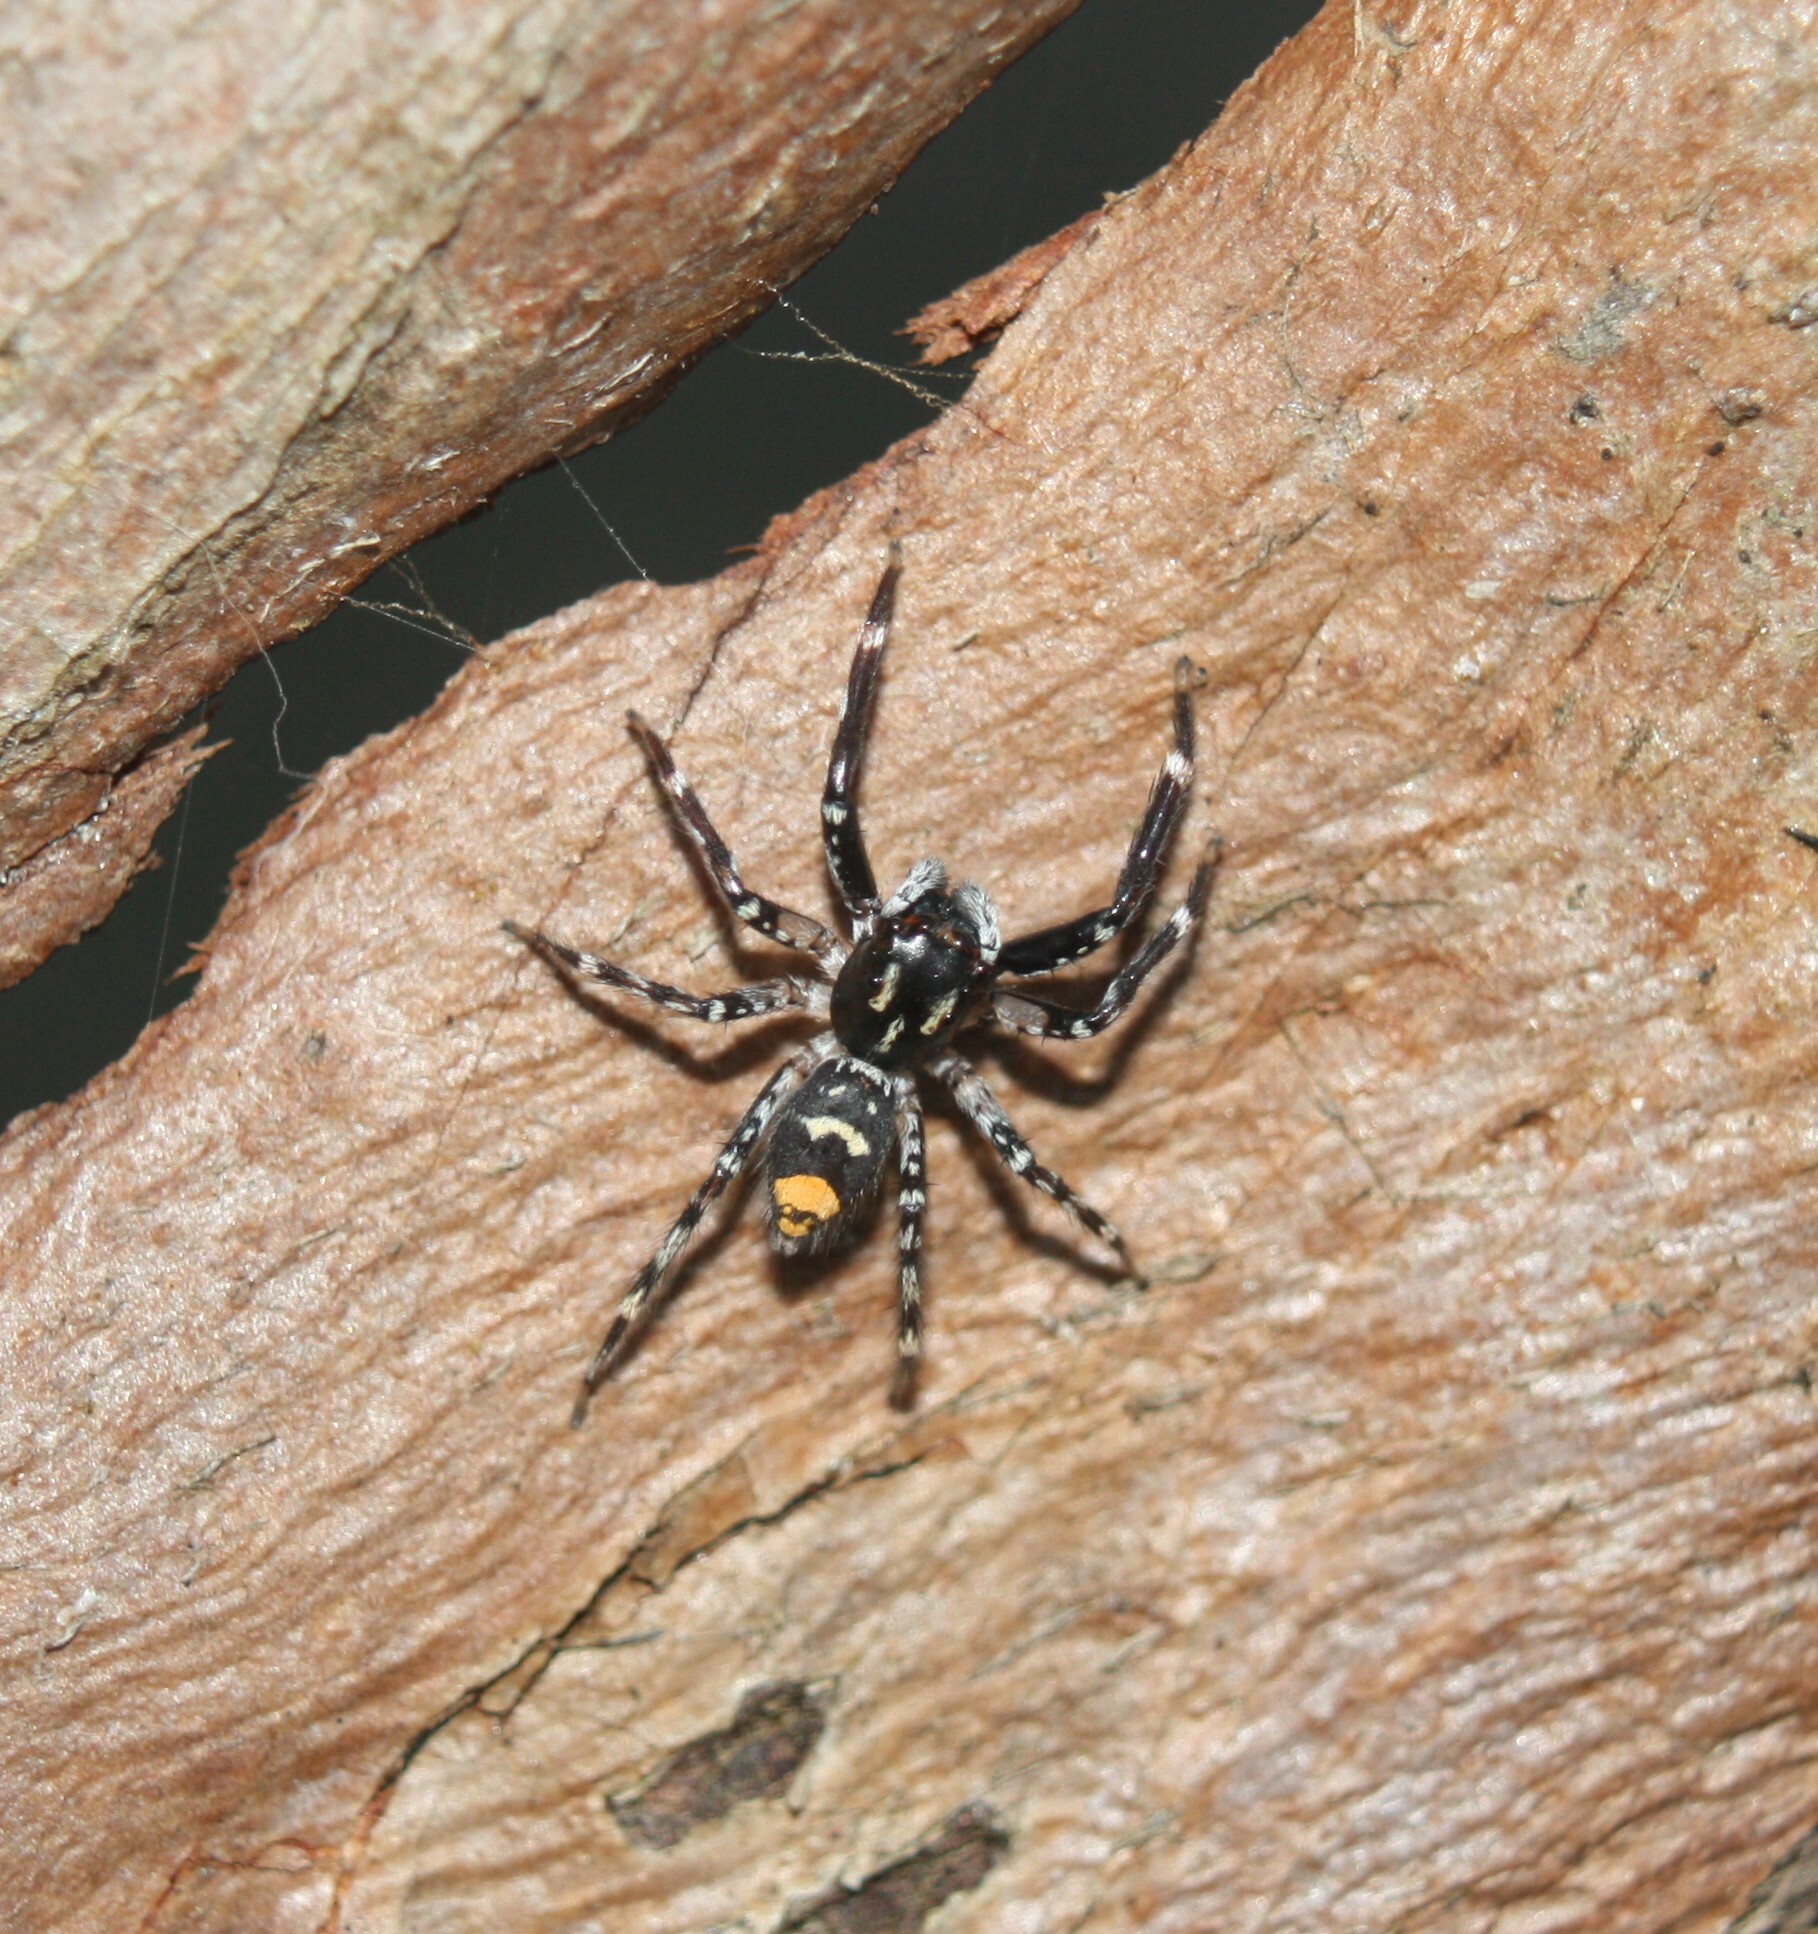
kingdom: Animalia
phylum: Arthropoda
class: Arachnida
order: Araneae
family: Salticidae
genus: Astia
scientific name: Astia
